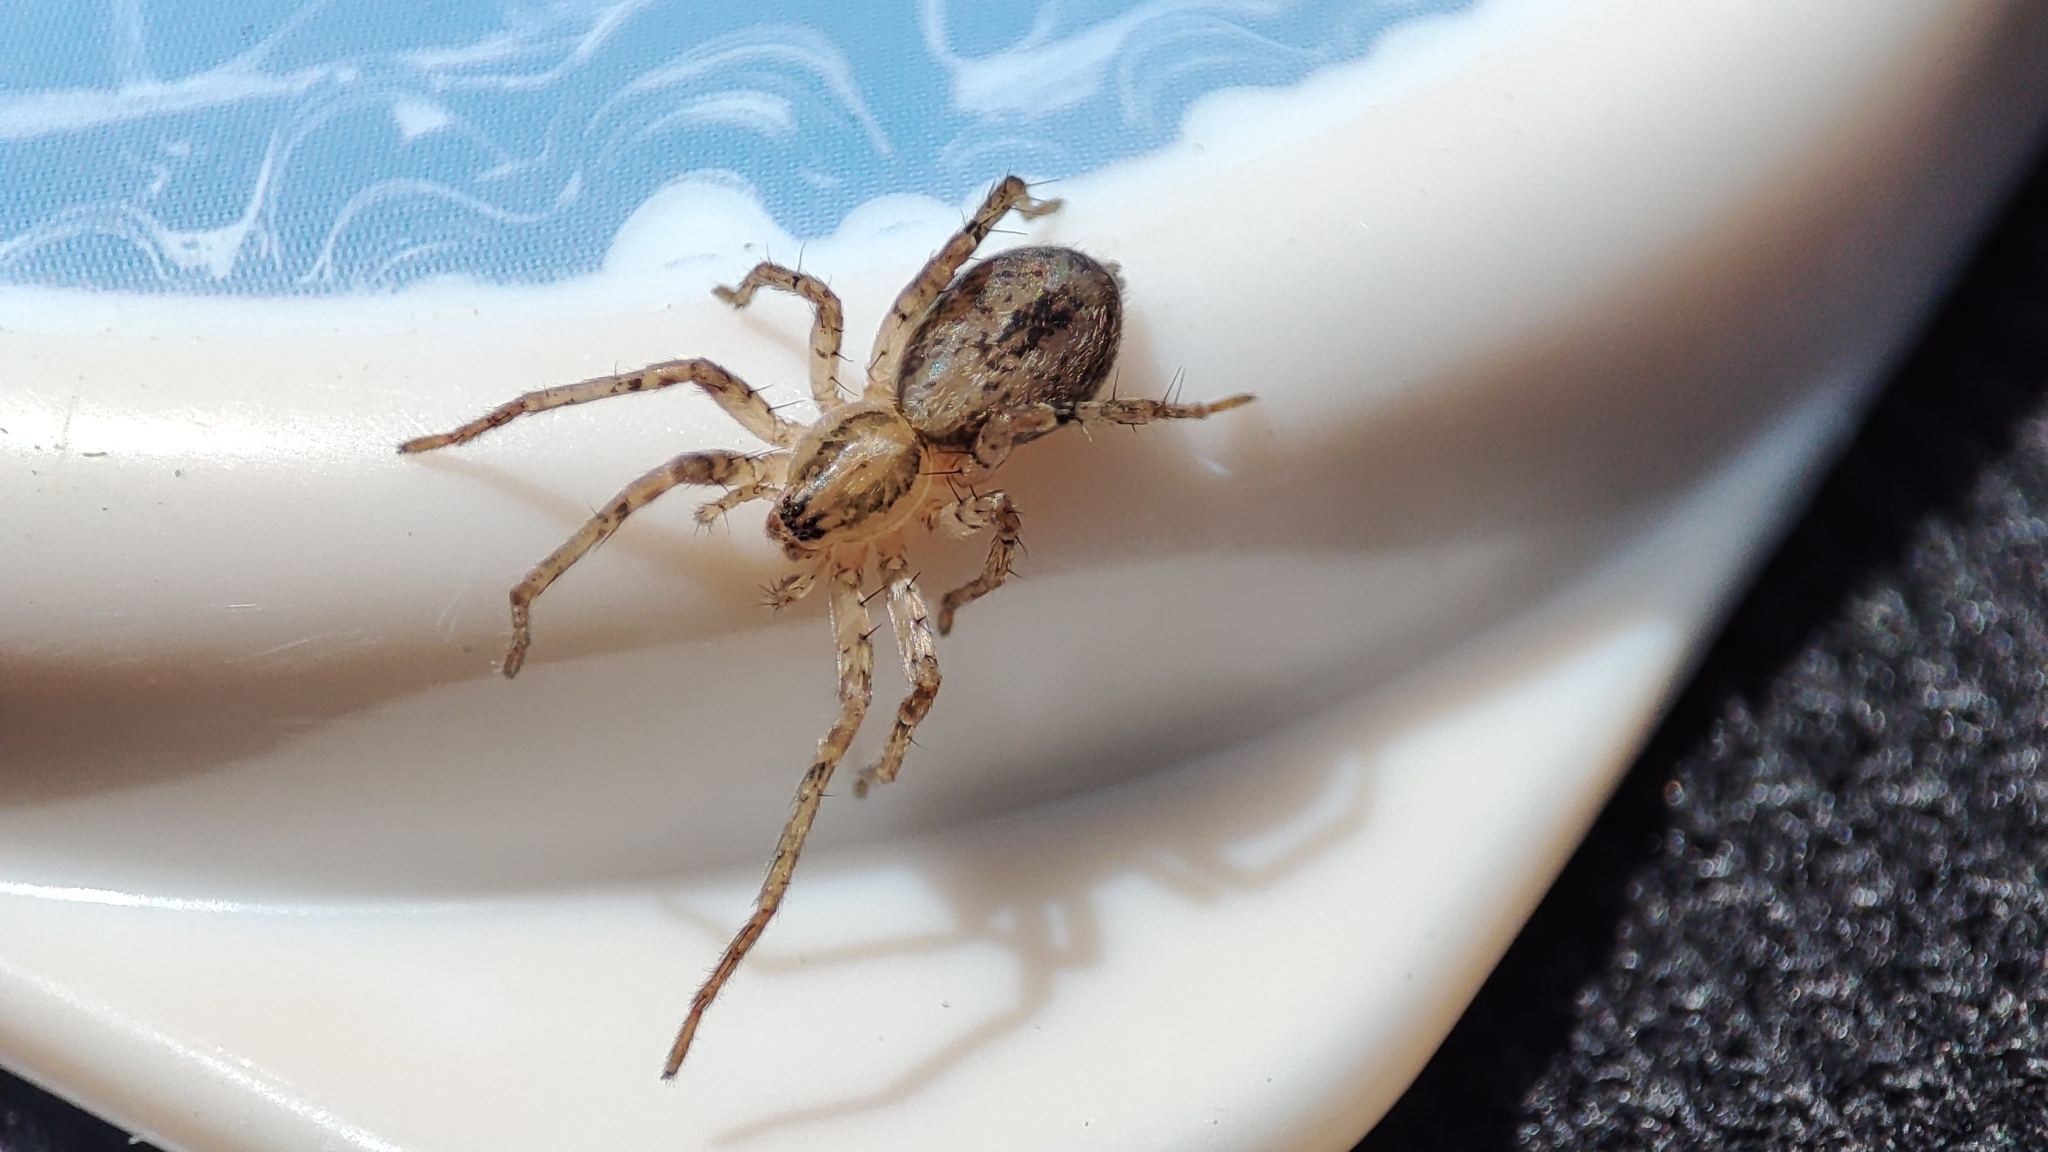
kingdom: Animalia
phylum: Arthropoda
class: Arachnida
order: Araneae
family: Anyphaenidae
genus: Anyphaena
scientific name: Anyphaena accentuata
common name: Buzzing spider
